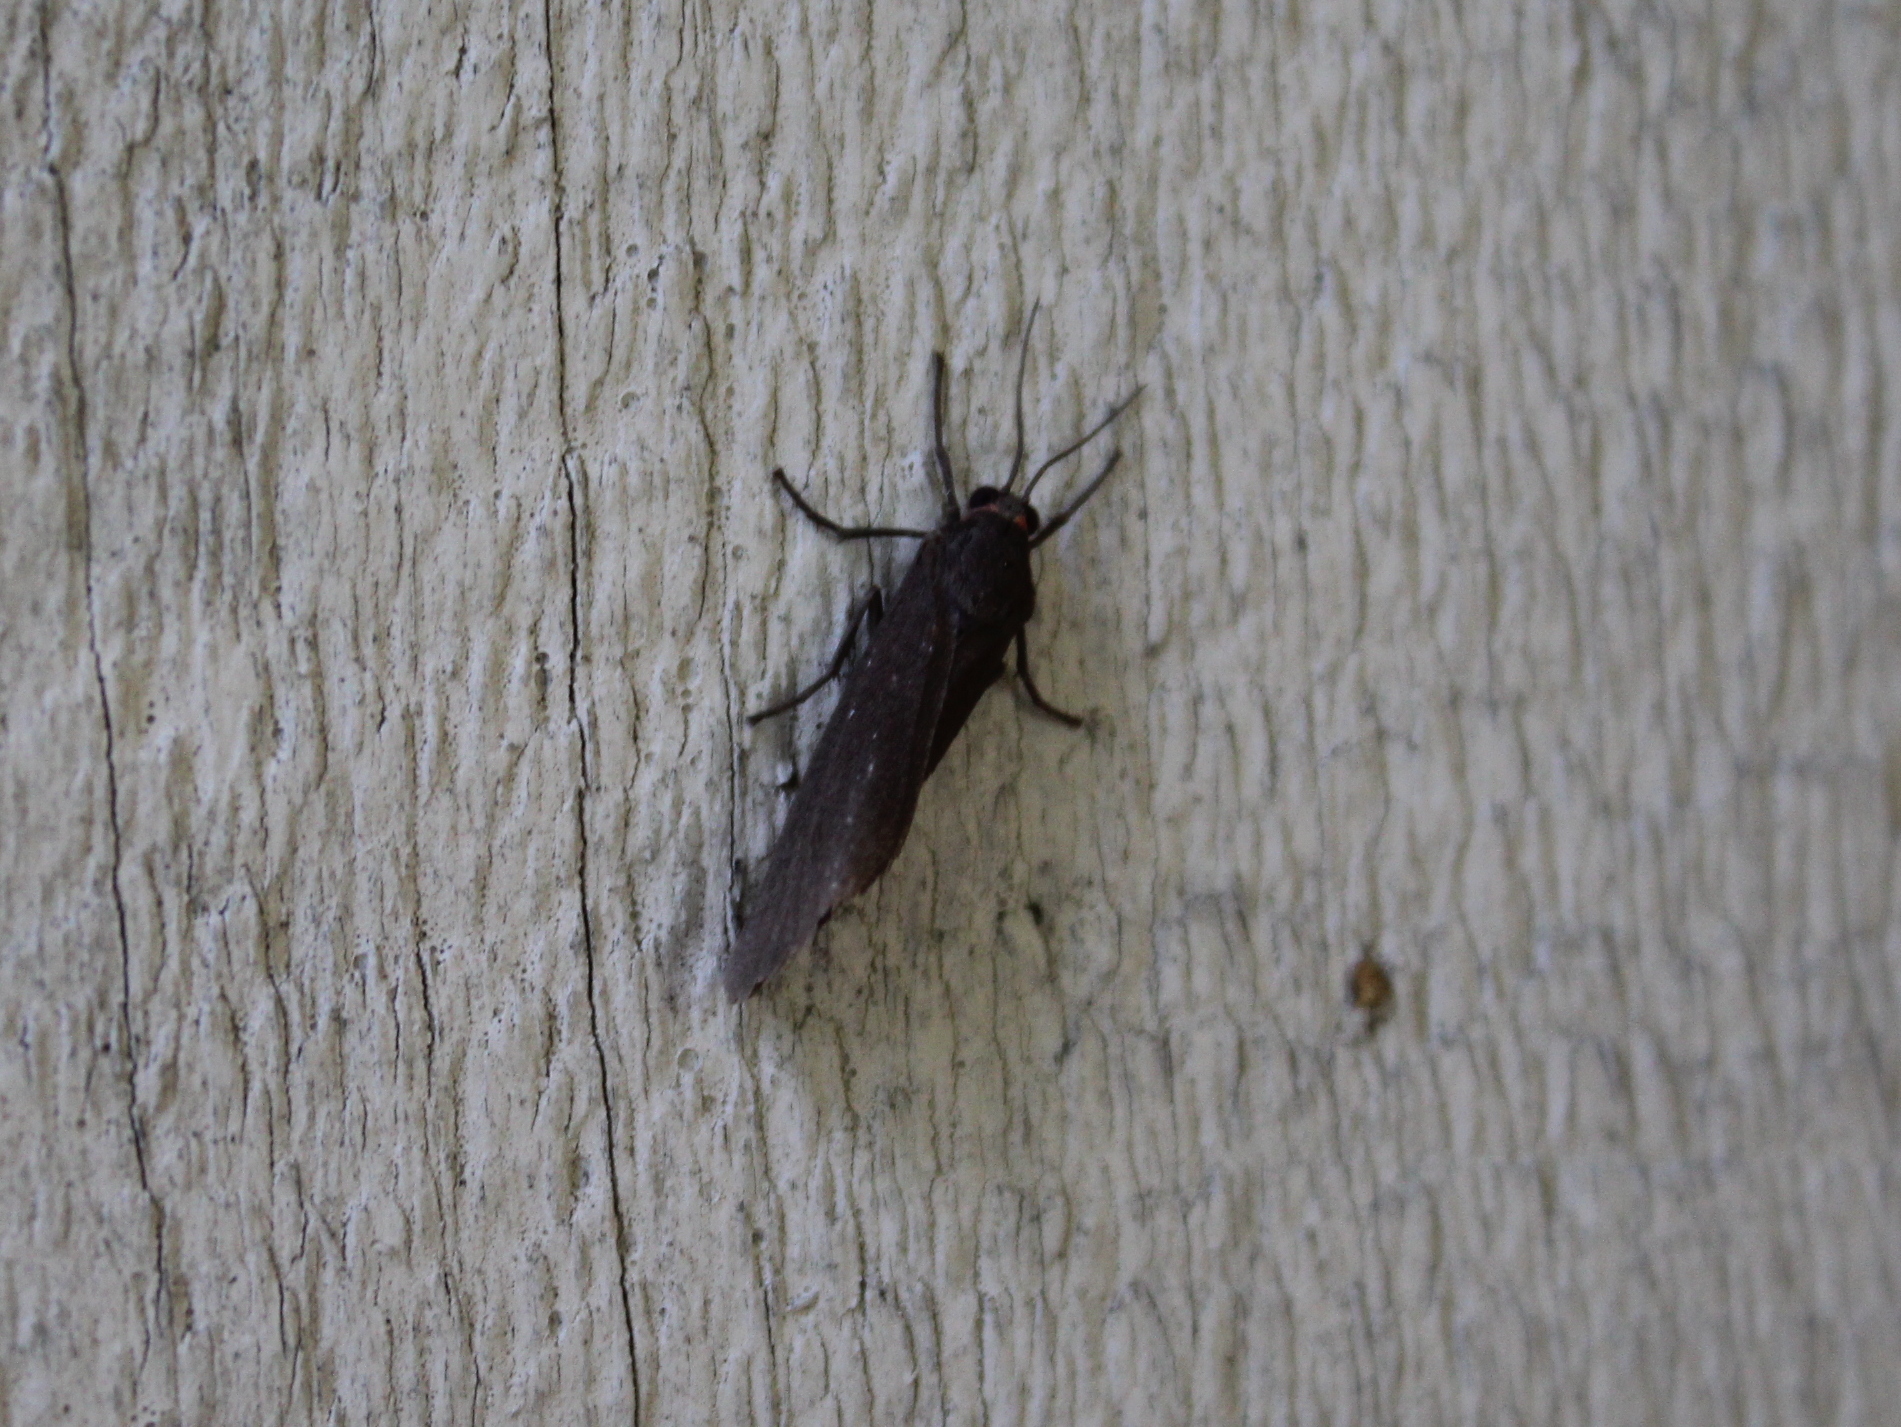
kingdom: Animalia
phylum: Arthropoda
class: Insecta
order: Lepidoptera
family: Erebidae
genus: Virbia
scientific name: Virbia laeta
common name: Joyful holomelina moth
